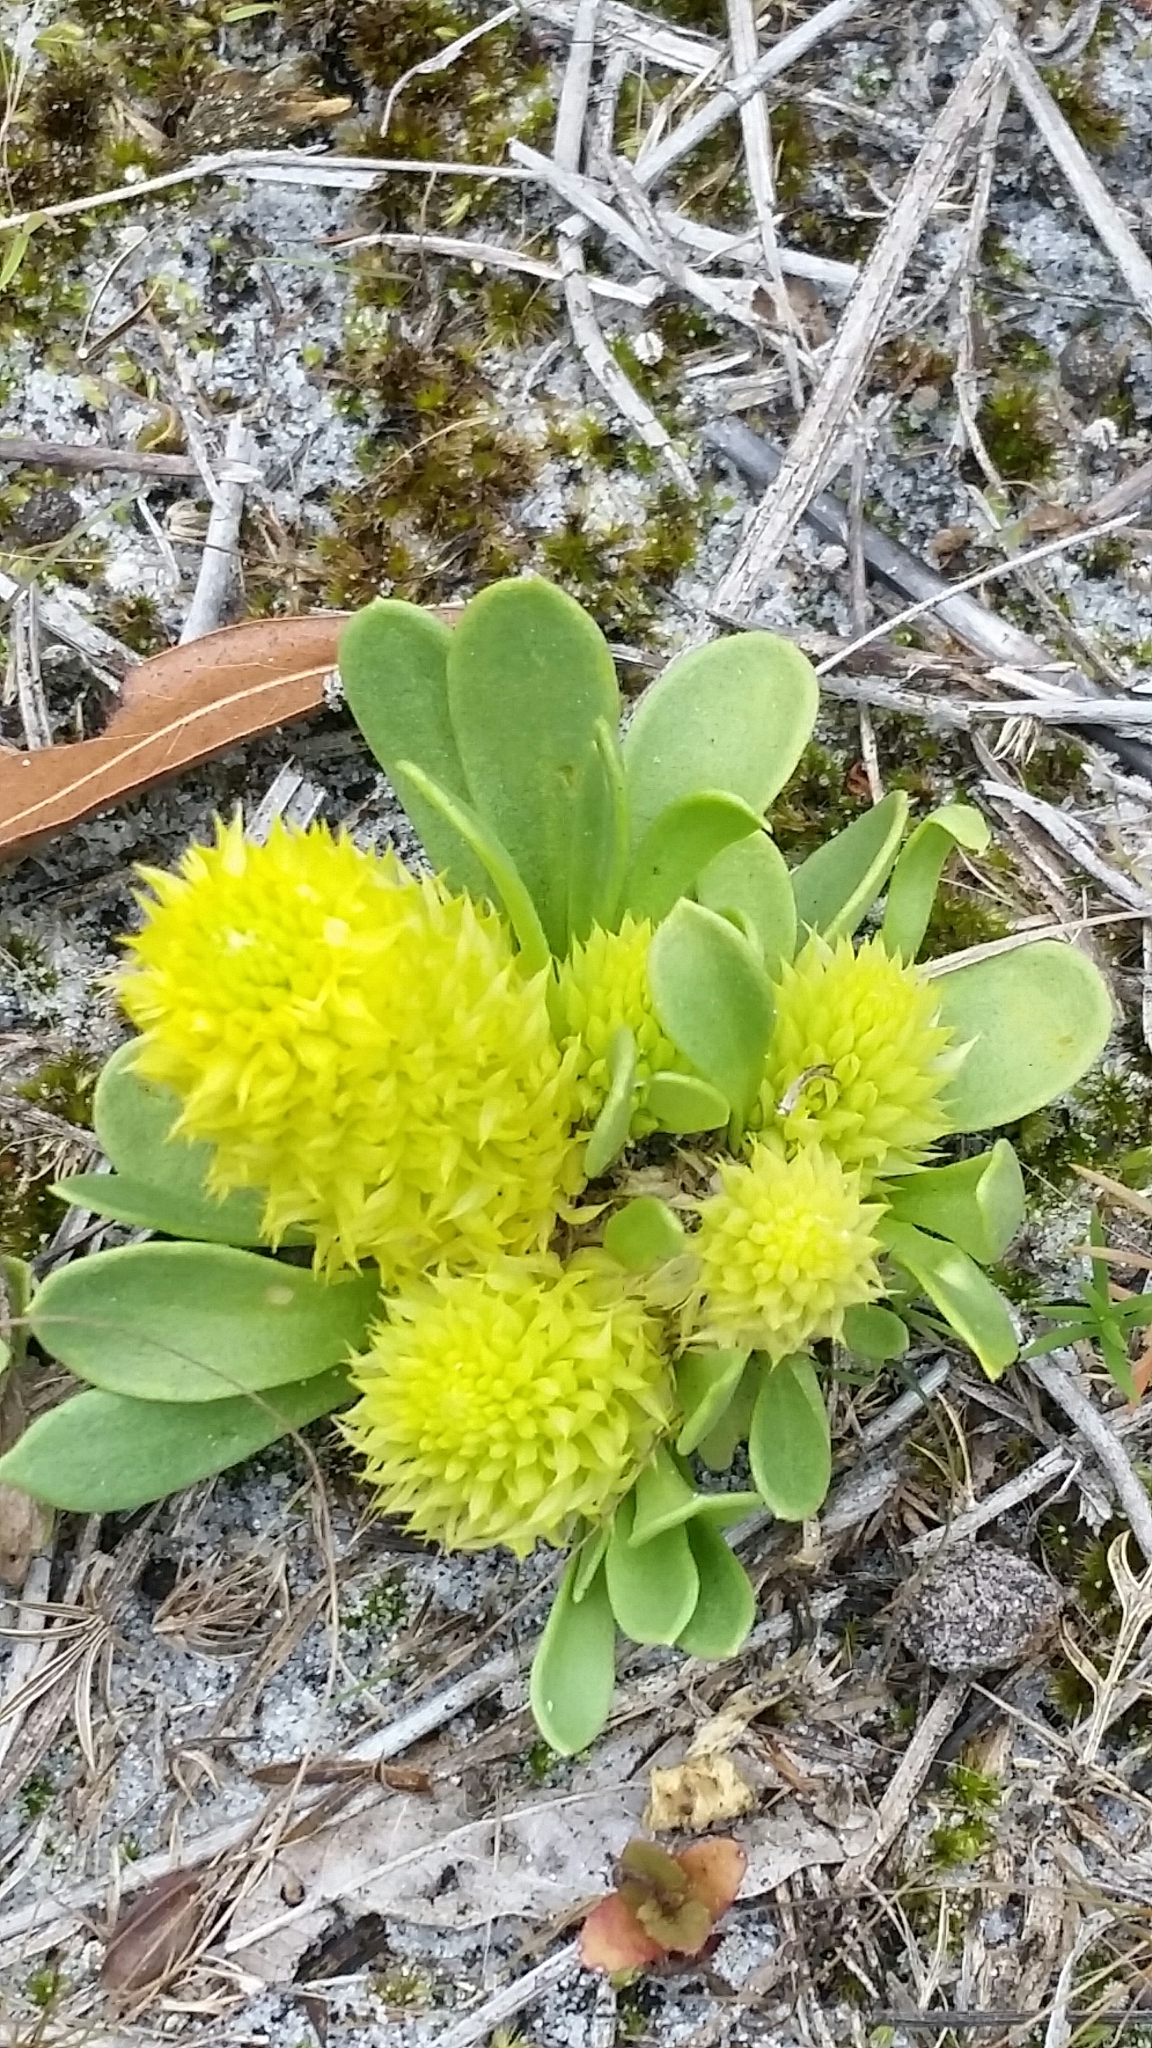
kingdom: Plantae
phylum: Tracheophyta
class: Magnoliopsida
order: Fabales
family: Polygalaceae
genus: Polygala
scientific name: Polygala nana
